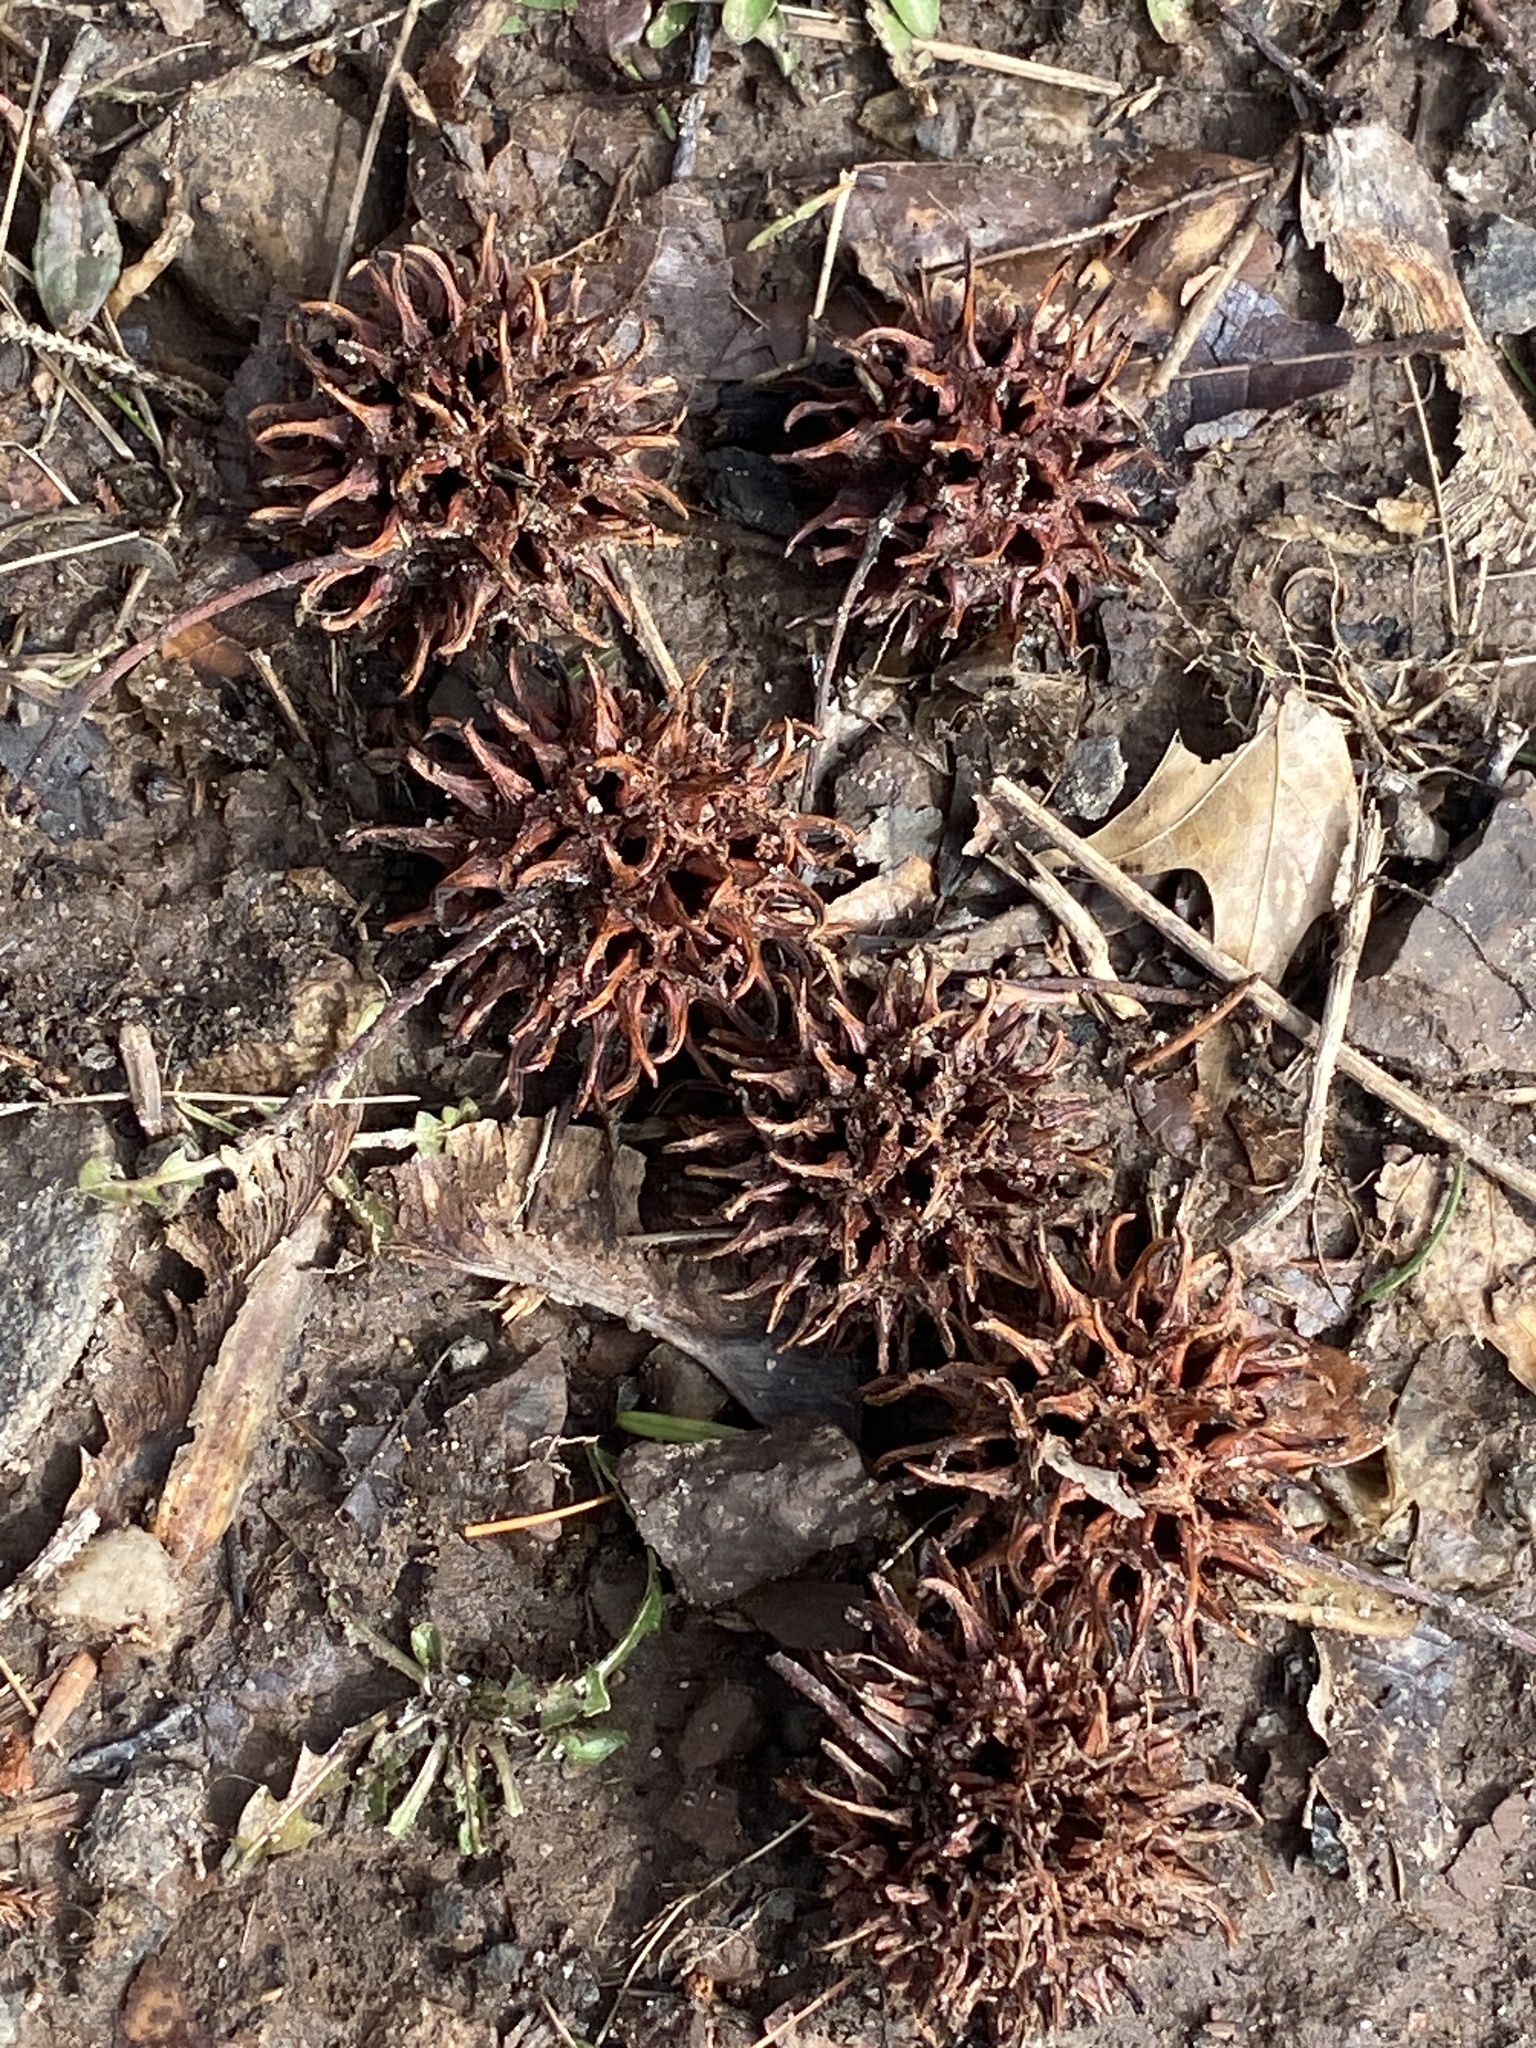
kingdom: Plantae
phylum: Tracheophyta
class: Magnoliopsida
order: Saxifragales
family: Altingiaceae
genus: Liquidambar
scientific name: Liquidambar styraciflua
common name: Sweet gum
